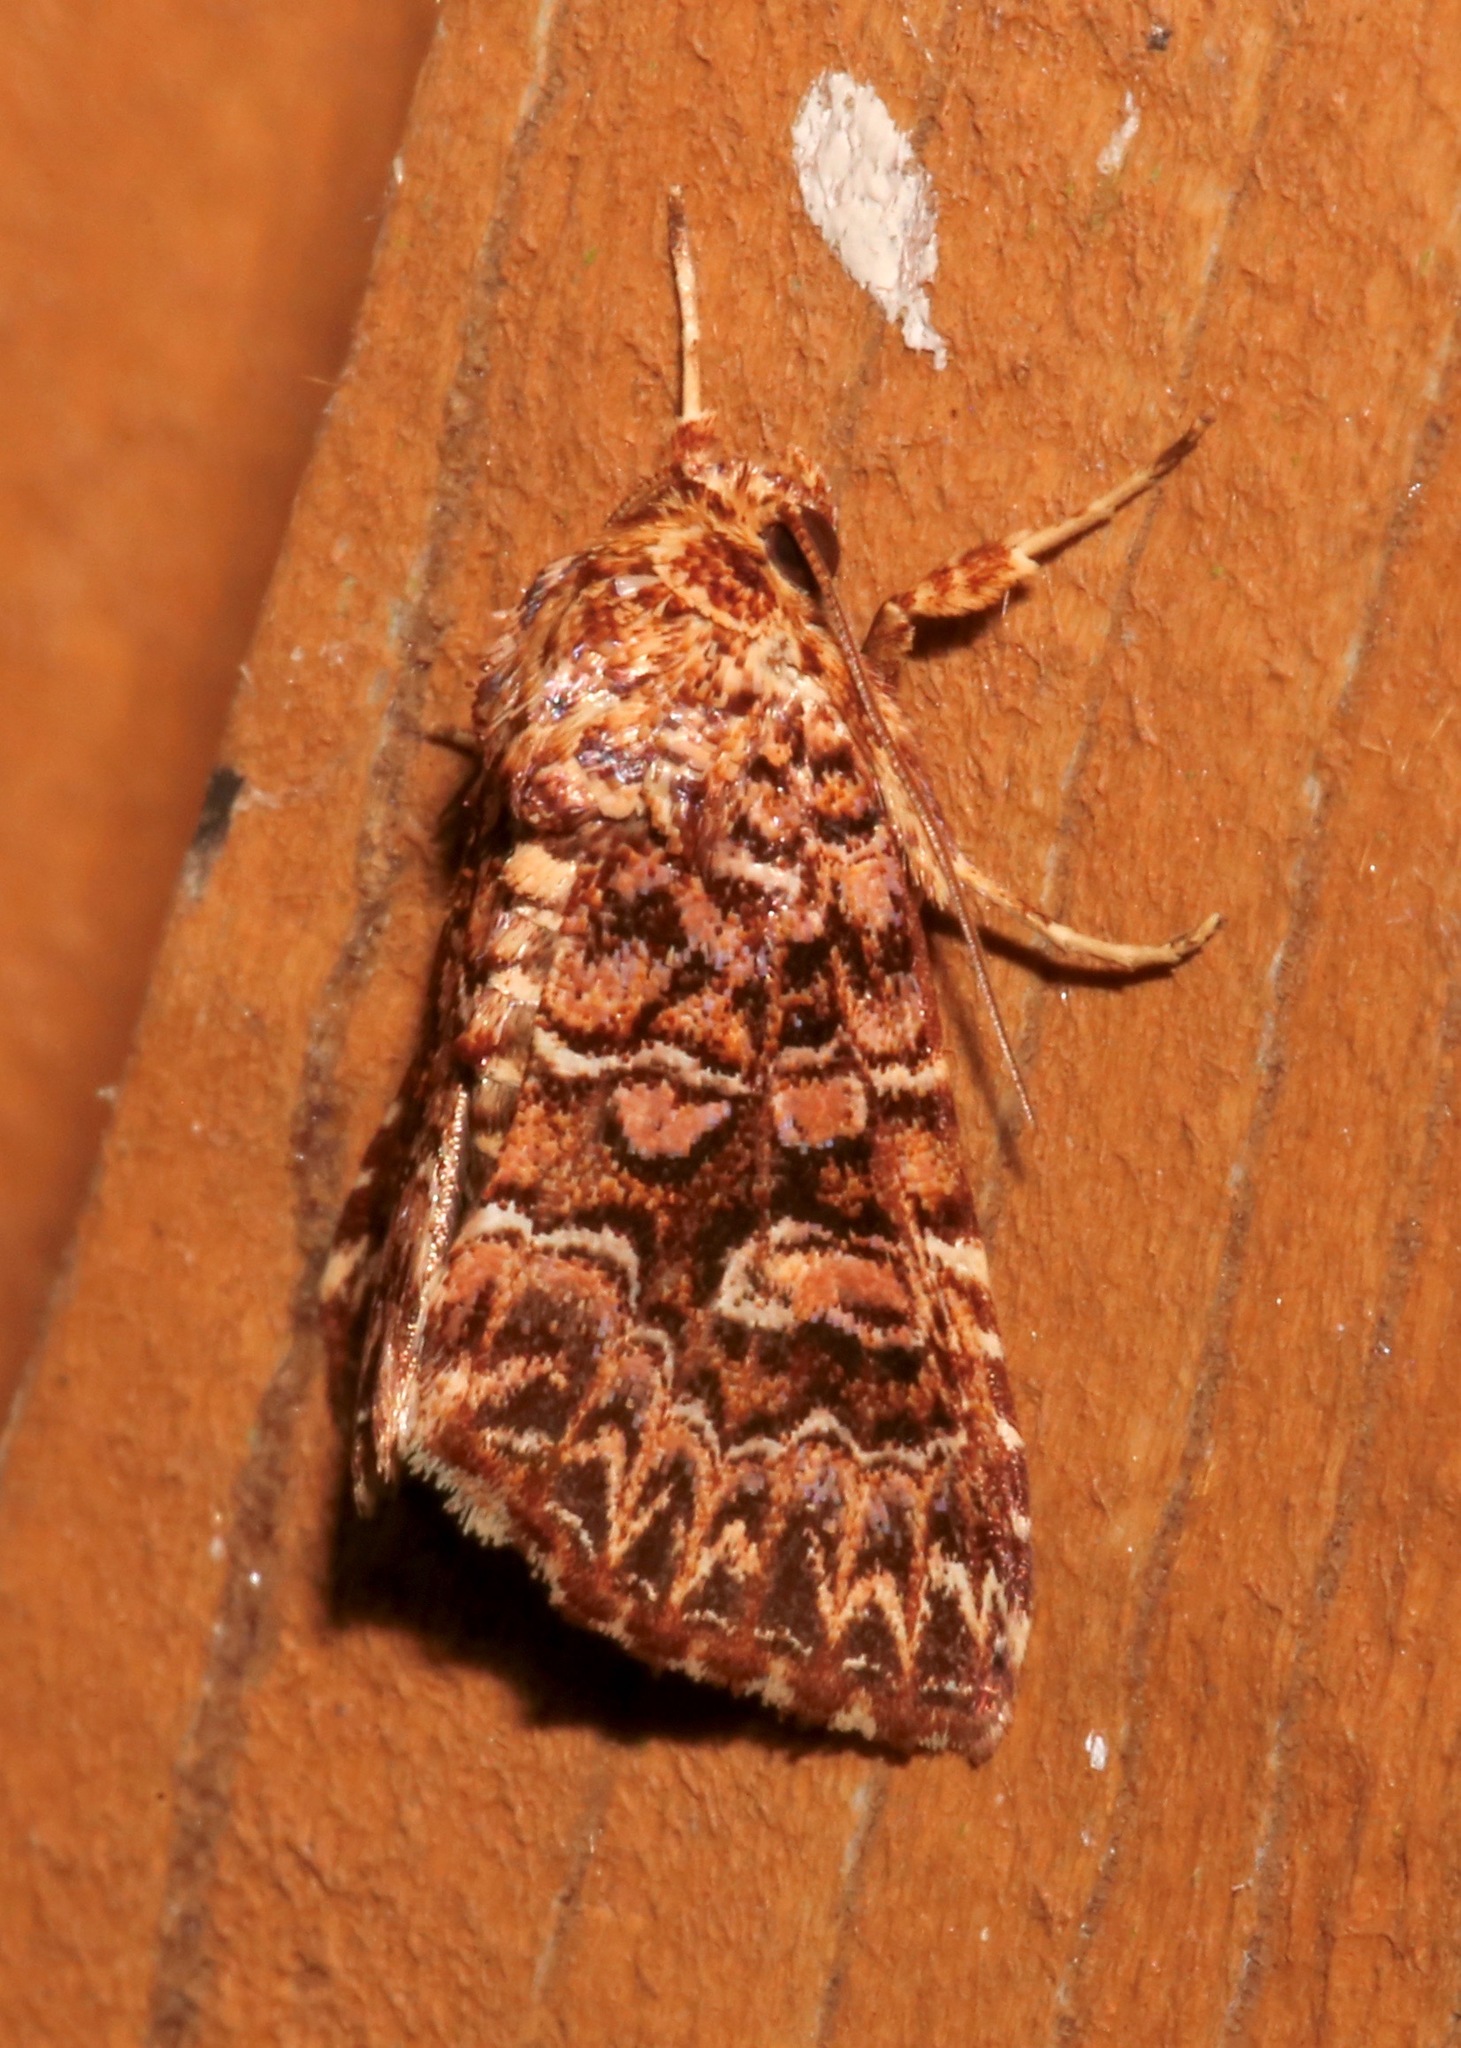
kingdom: Animalia
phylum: Arthropoda
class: Insecta
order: Lepidoptera
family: Noctuidae
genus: Callopistria
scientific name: Callopistria granitosa
